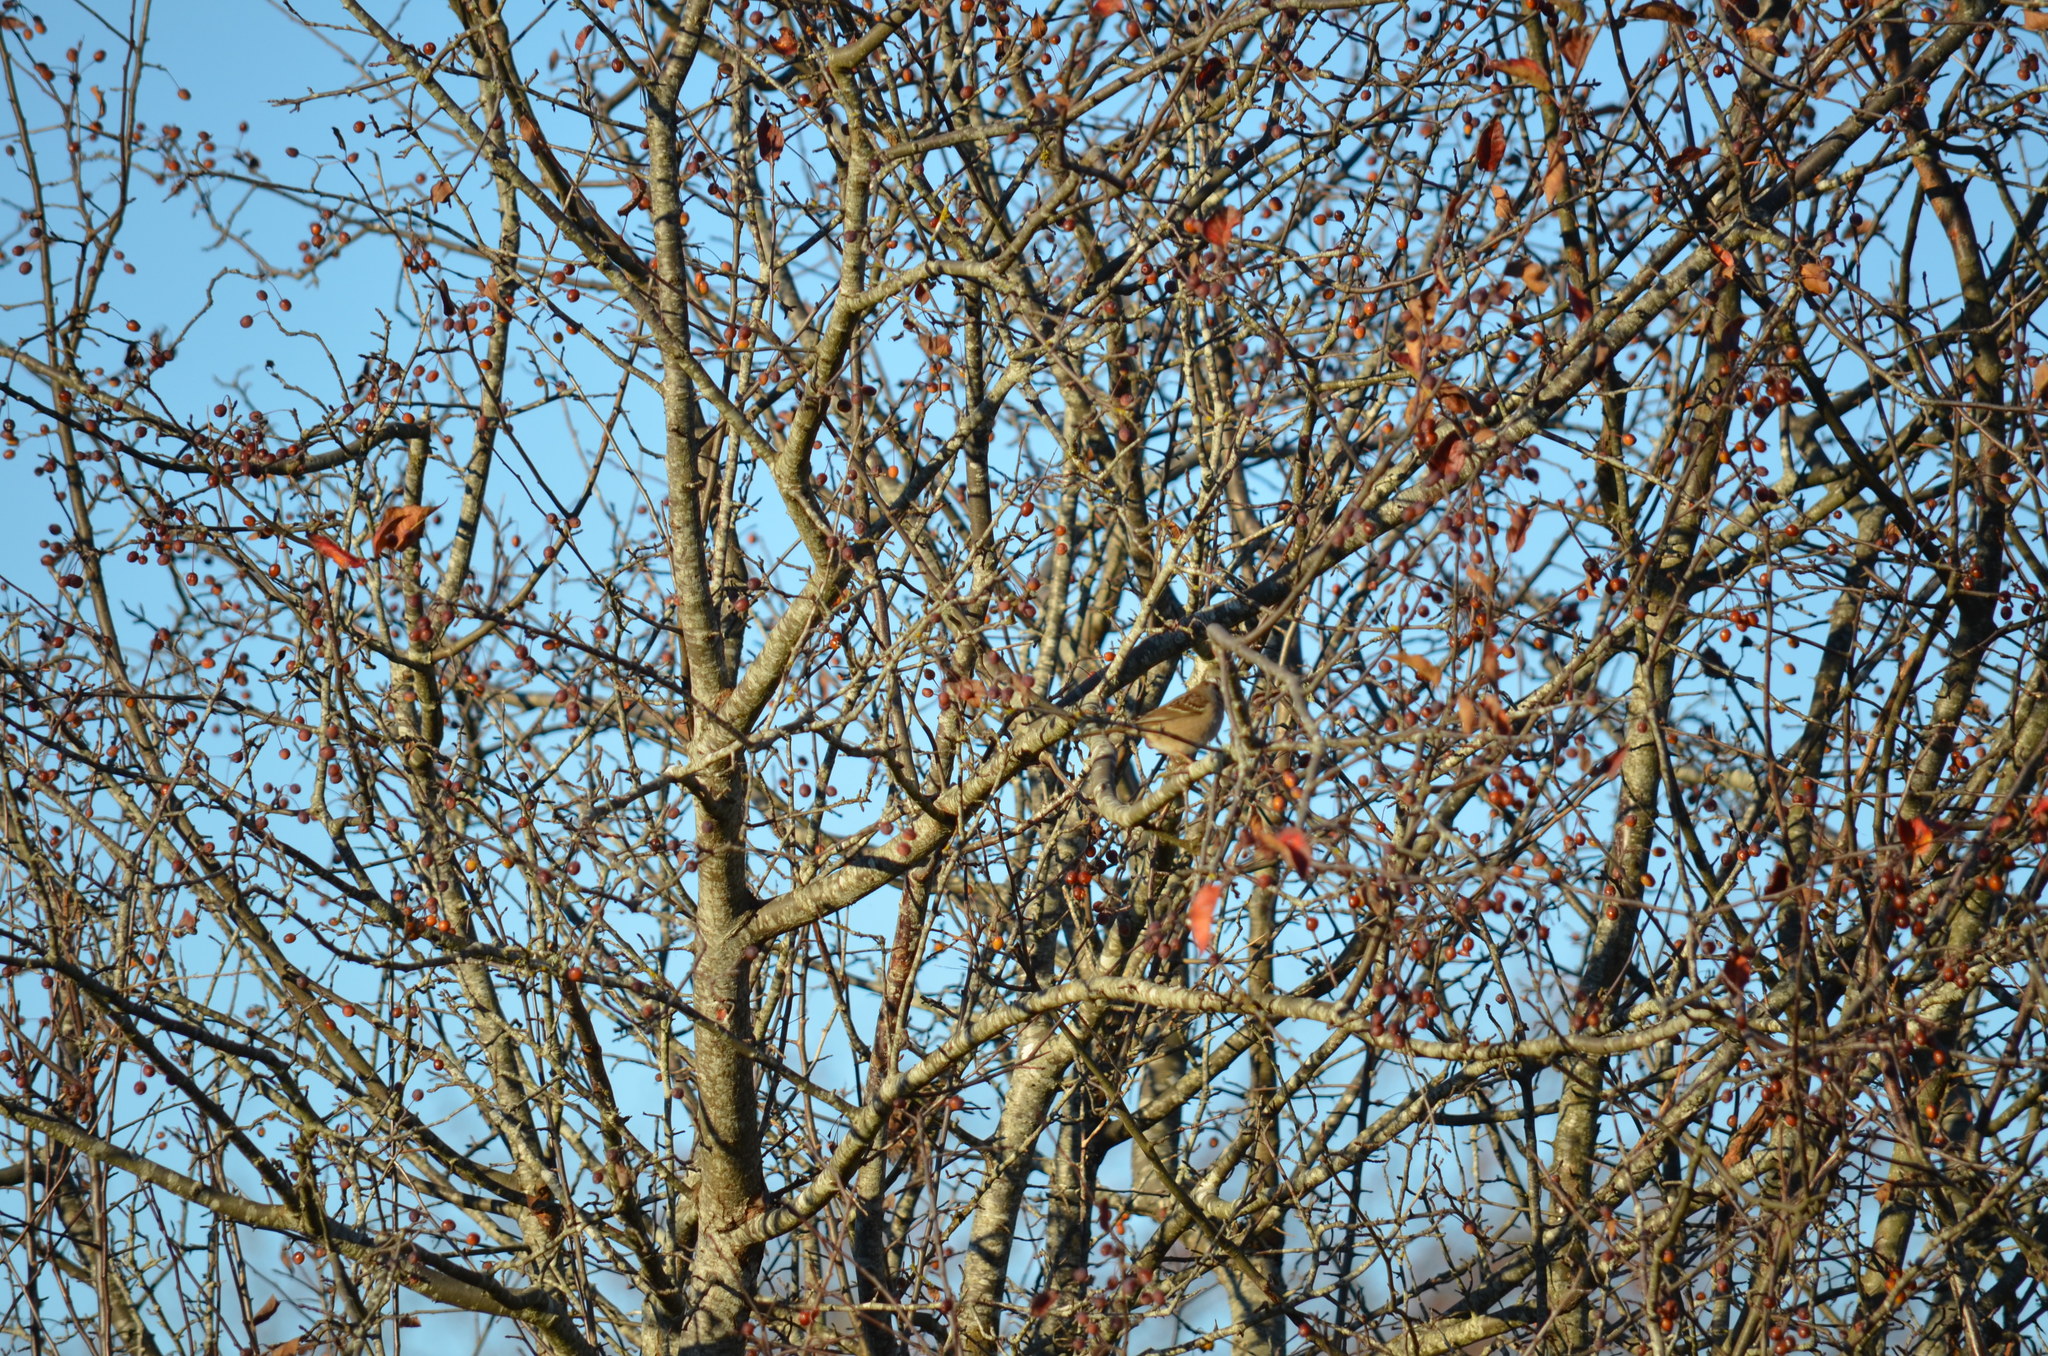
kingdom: Animalia
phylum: Chordata
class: Aves
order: Passeriformes
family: Passerellidae
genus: Zonotrichia
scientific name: Zonotrichia leucophrys
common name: White-crowned sparrow
